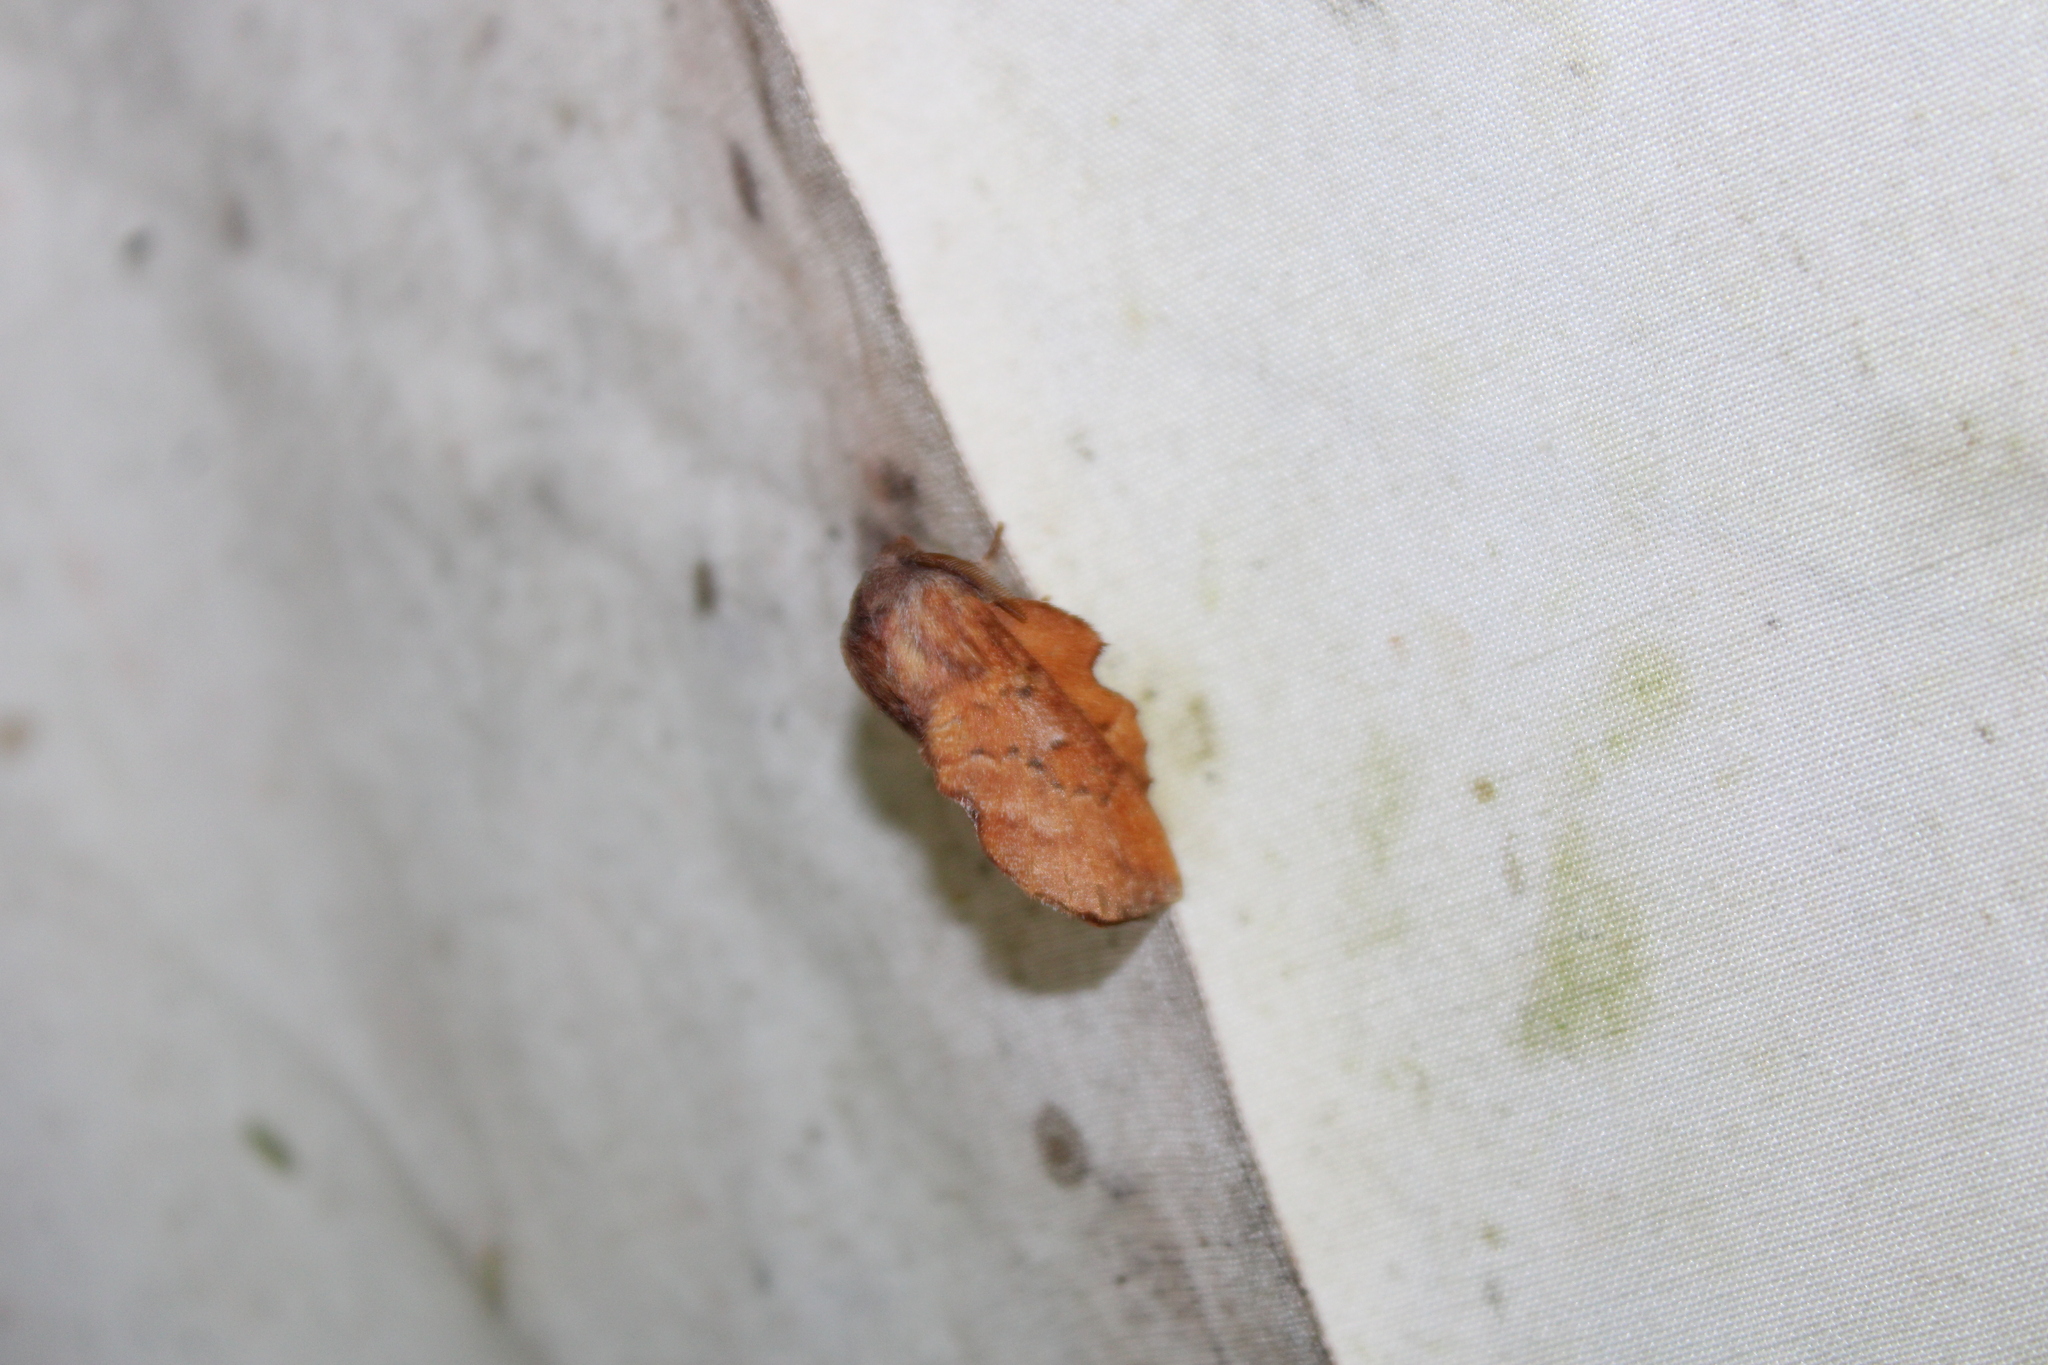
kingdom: Animalia
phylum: Arthropoda
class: Insecta
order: Lepidoptera
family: Lasiocampidae
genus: Phyllodesma
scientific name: Phyllodesma americana
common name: American lappet moth
